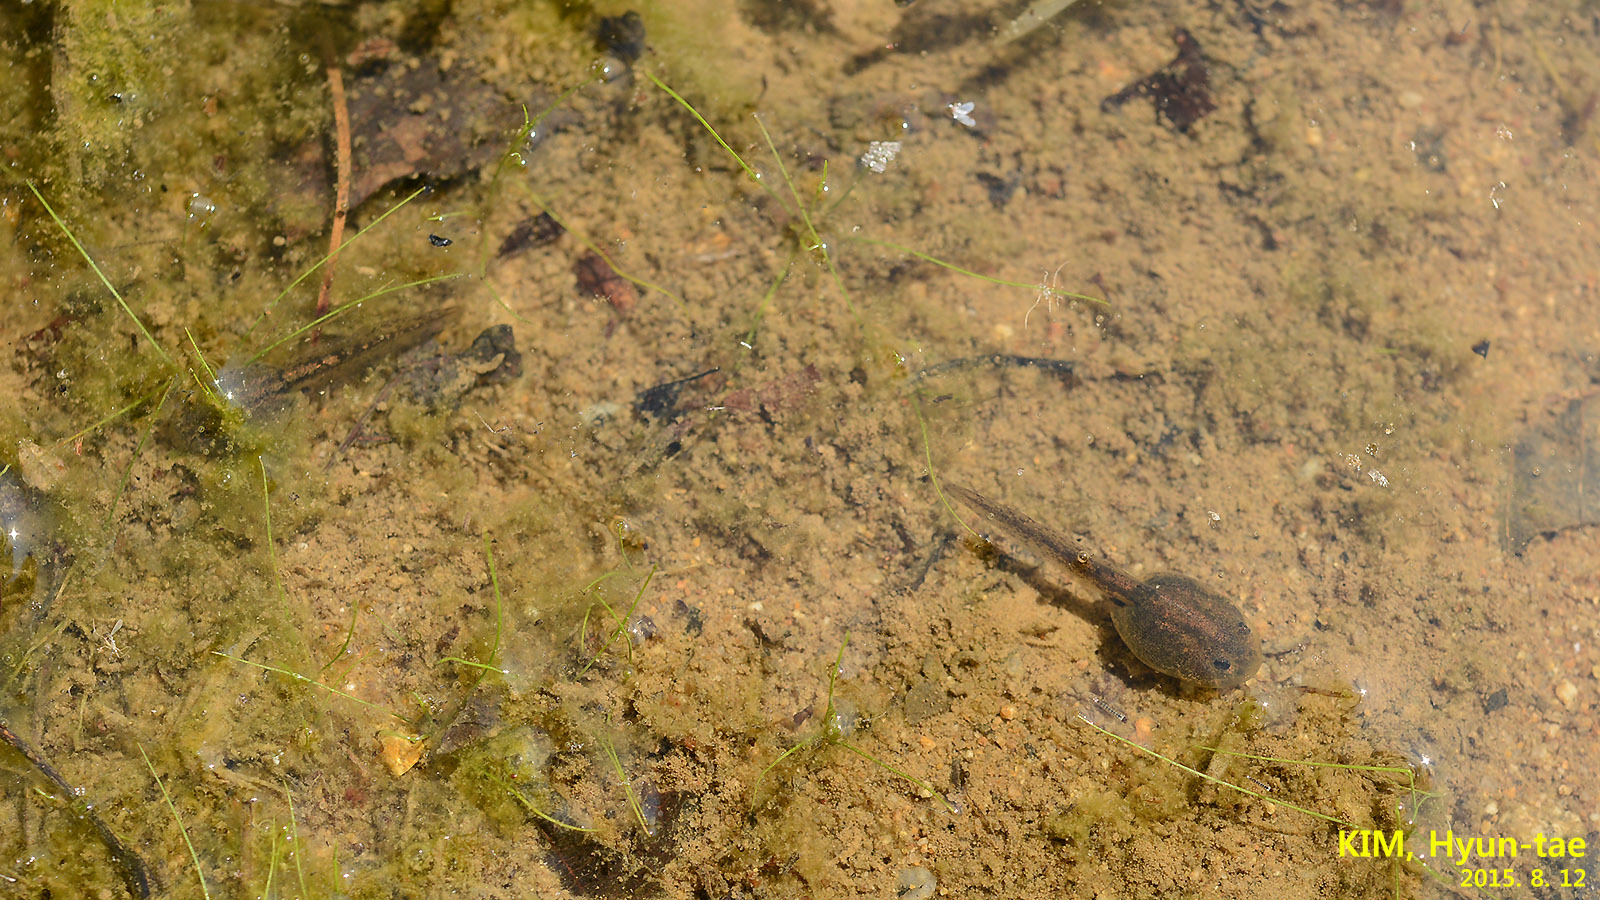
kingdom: Animalia
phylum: Chordata
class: Amphibia
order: Anura
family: Bombinatoridae
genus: Bombina
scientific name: Bombina orientalis
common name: Oriental firebelly toad
